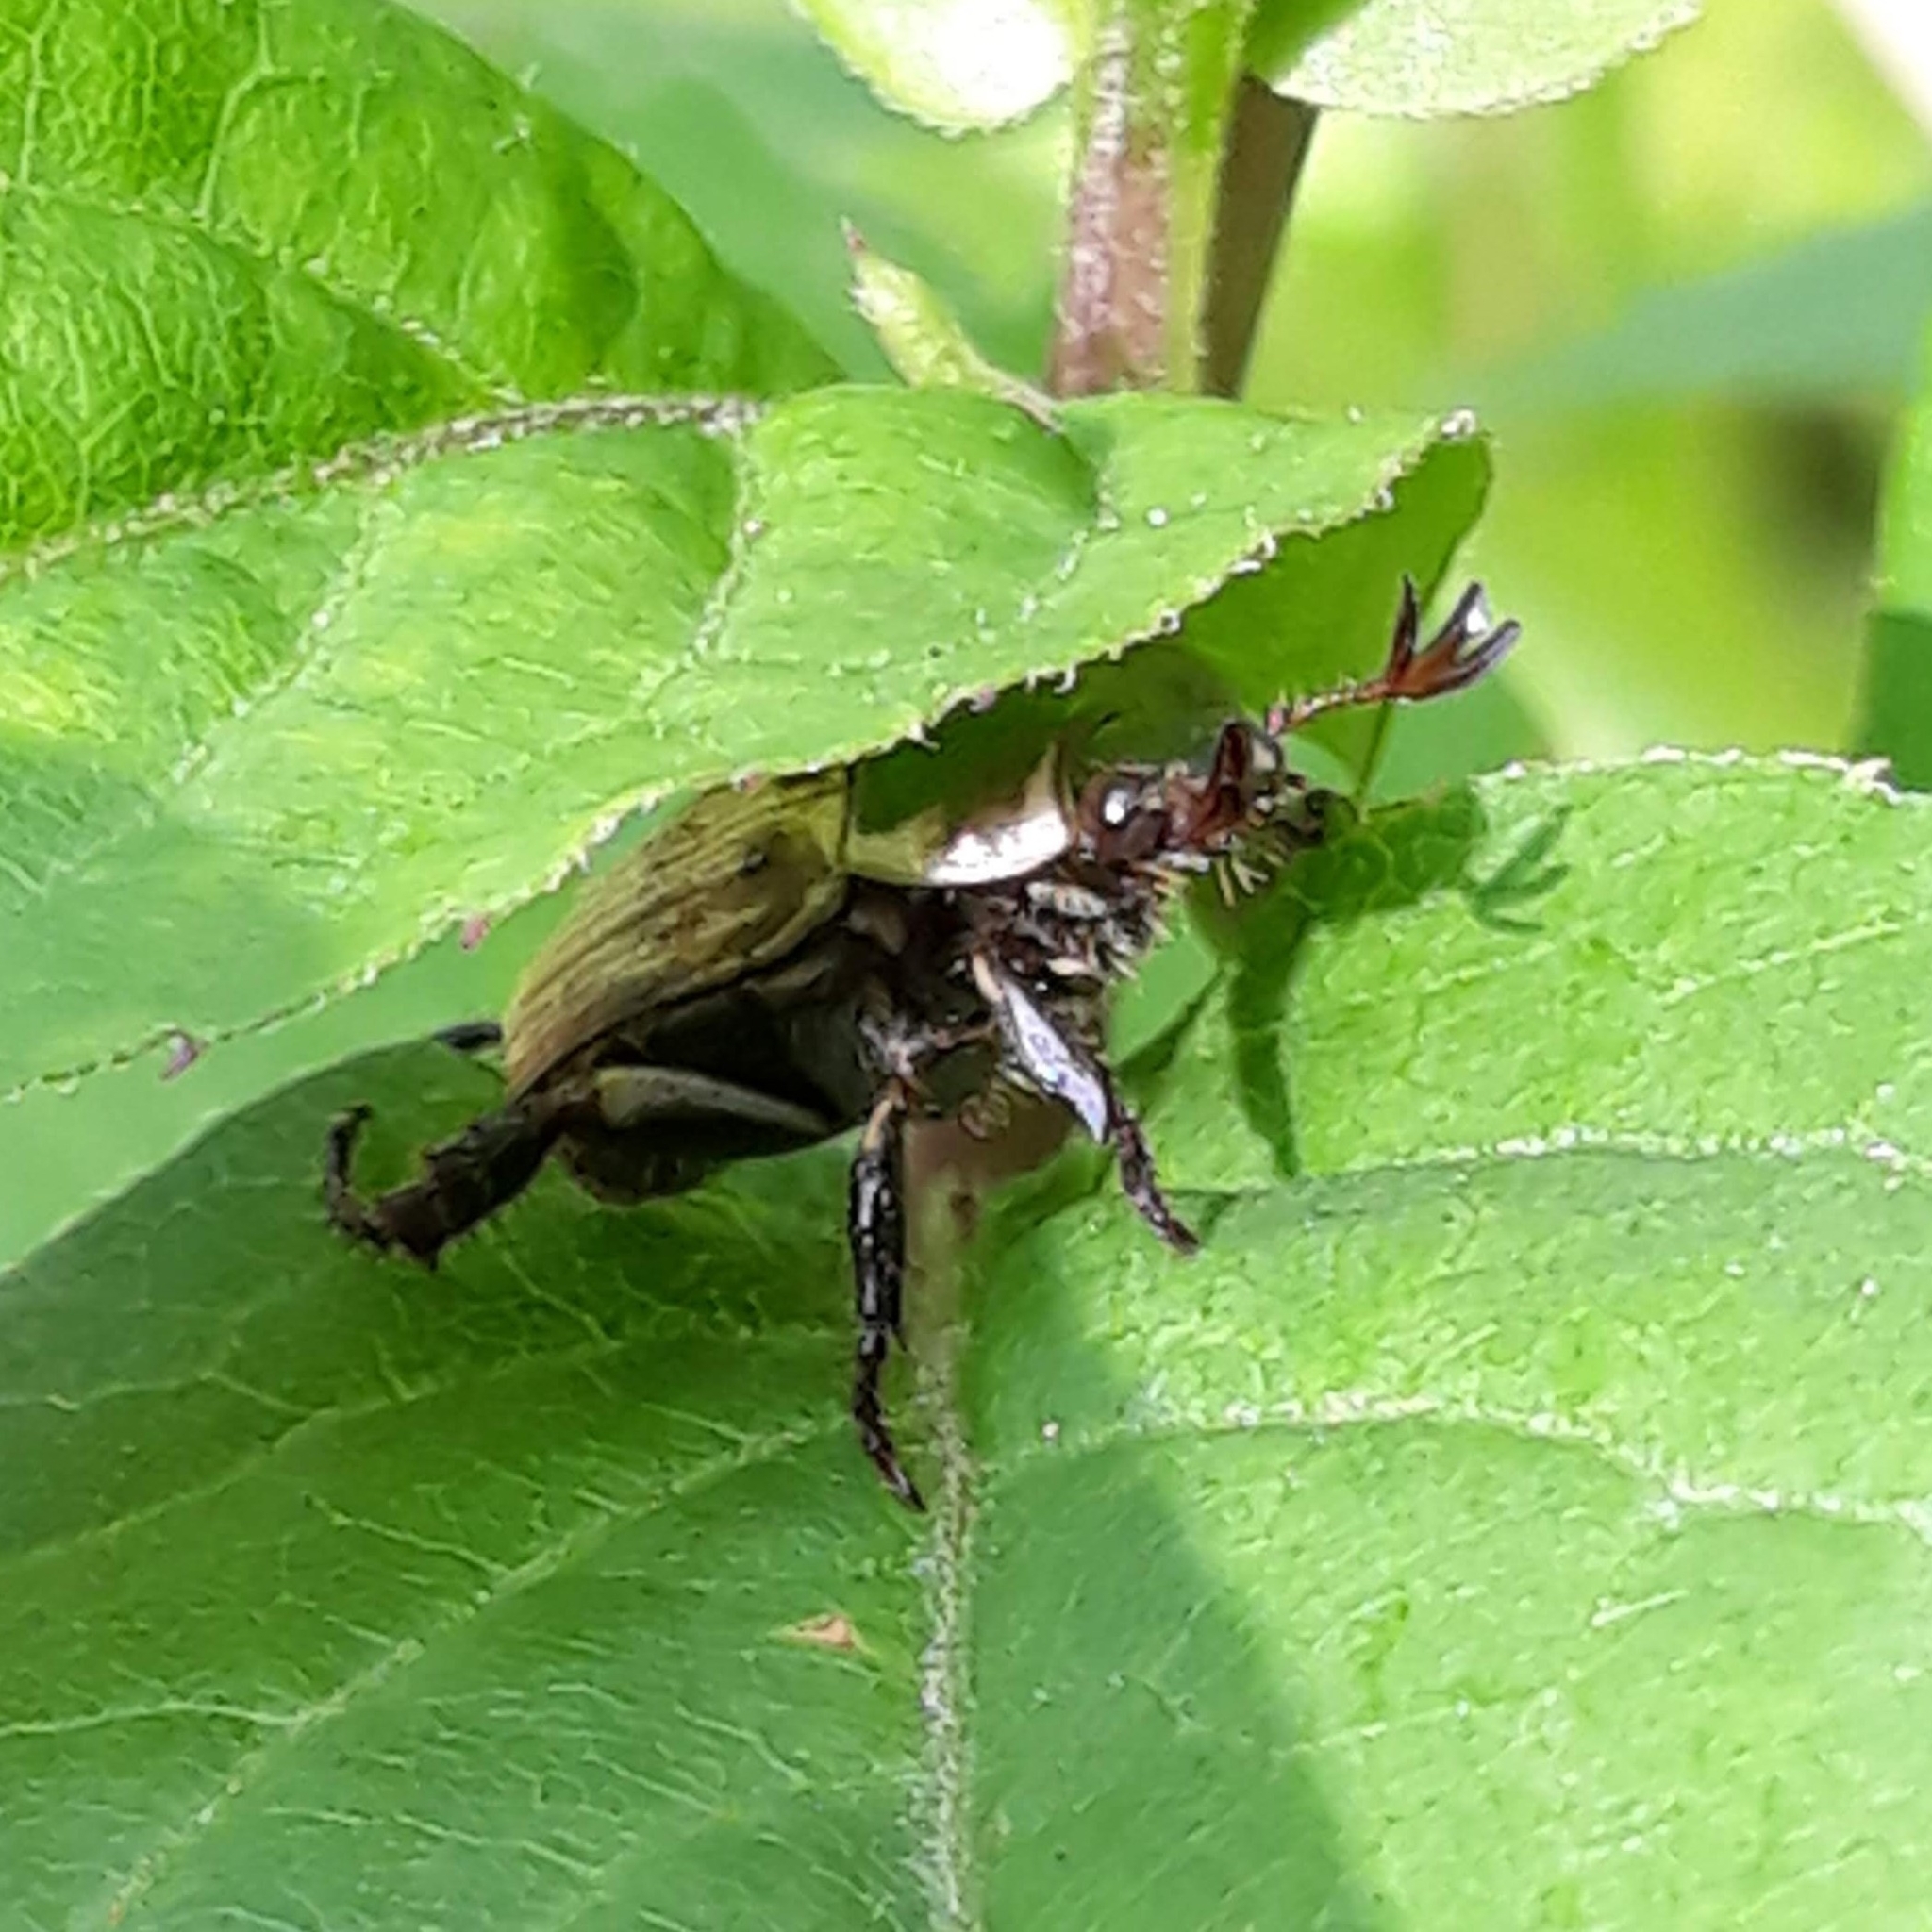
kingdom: Animalia
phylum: Arthropoda
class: Insecta
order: Coleoptera
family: Scarabaeidae
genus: Exomala
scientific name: Exomala orientalis
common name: Oriental beetle
